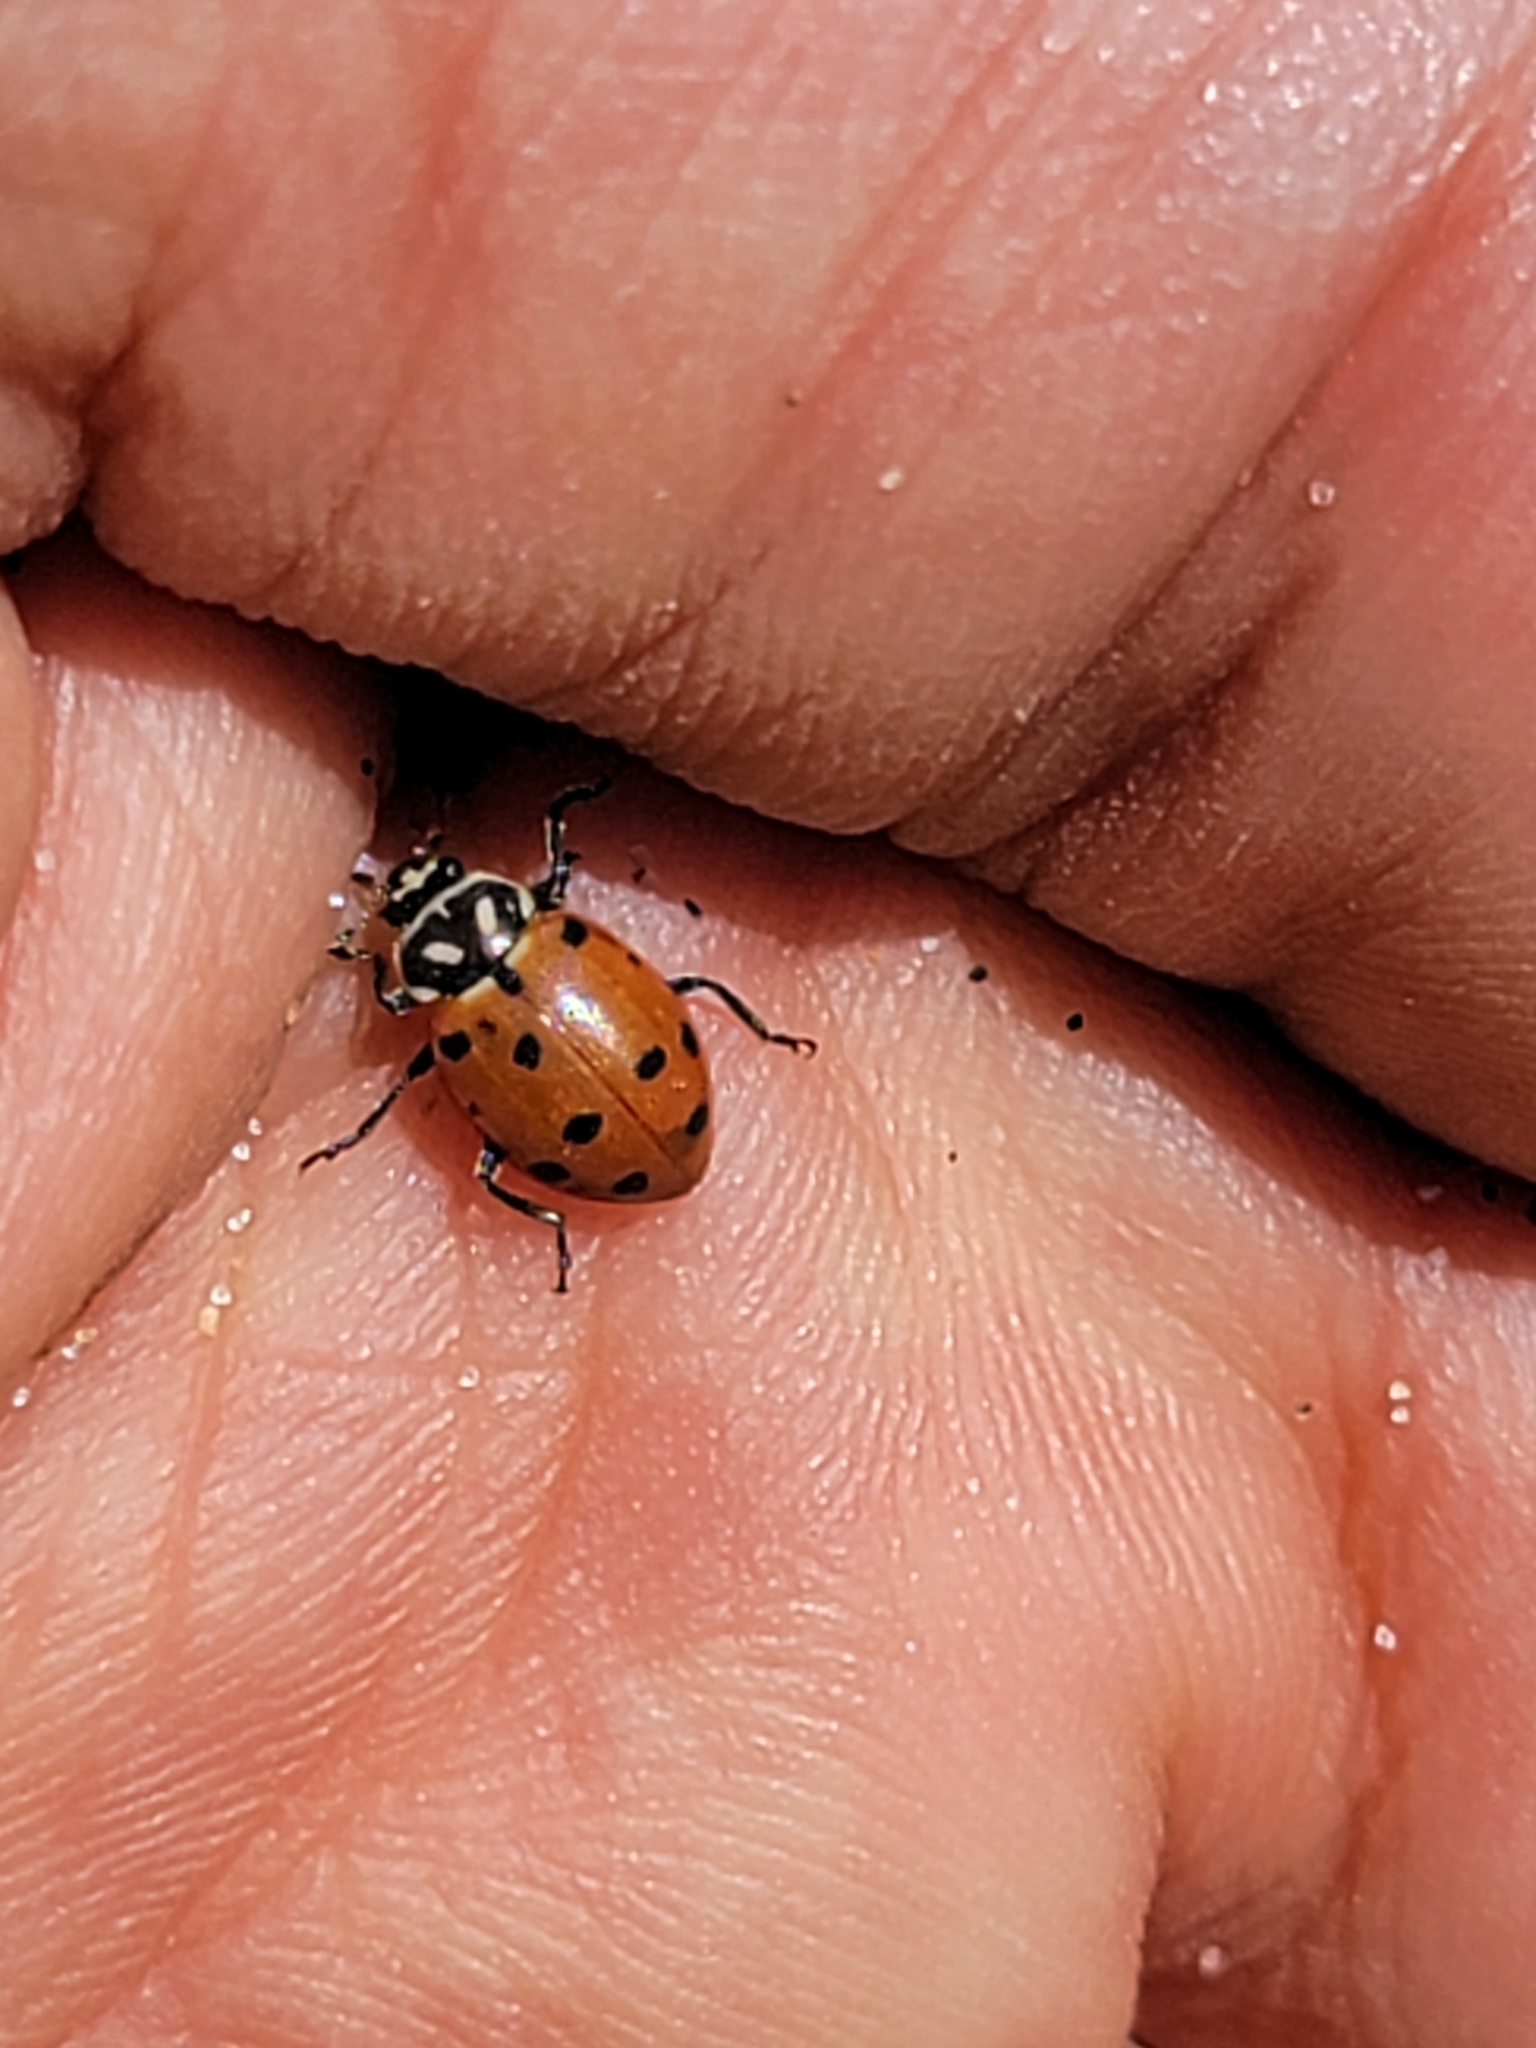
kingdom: Animalia
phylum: Arthropoda
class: Insecta
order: Coleoptera
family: Coccinellidae
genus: Hippodamia
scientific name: Hippodamia convergens
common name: Convergent lady beetle
